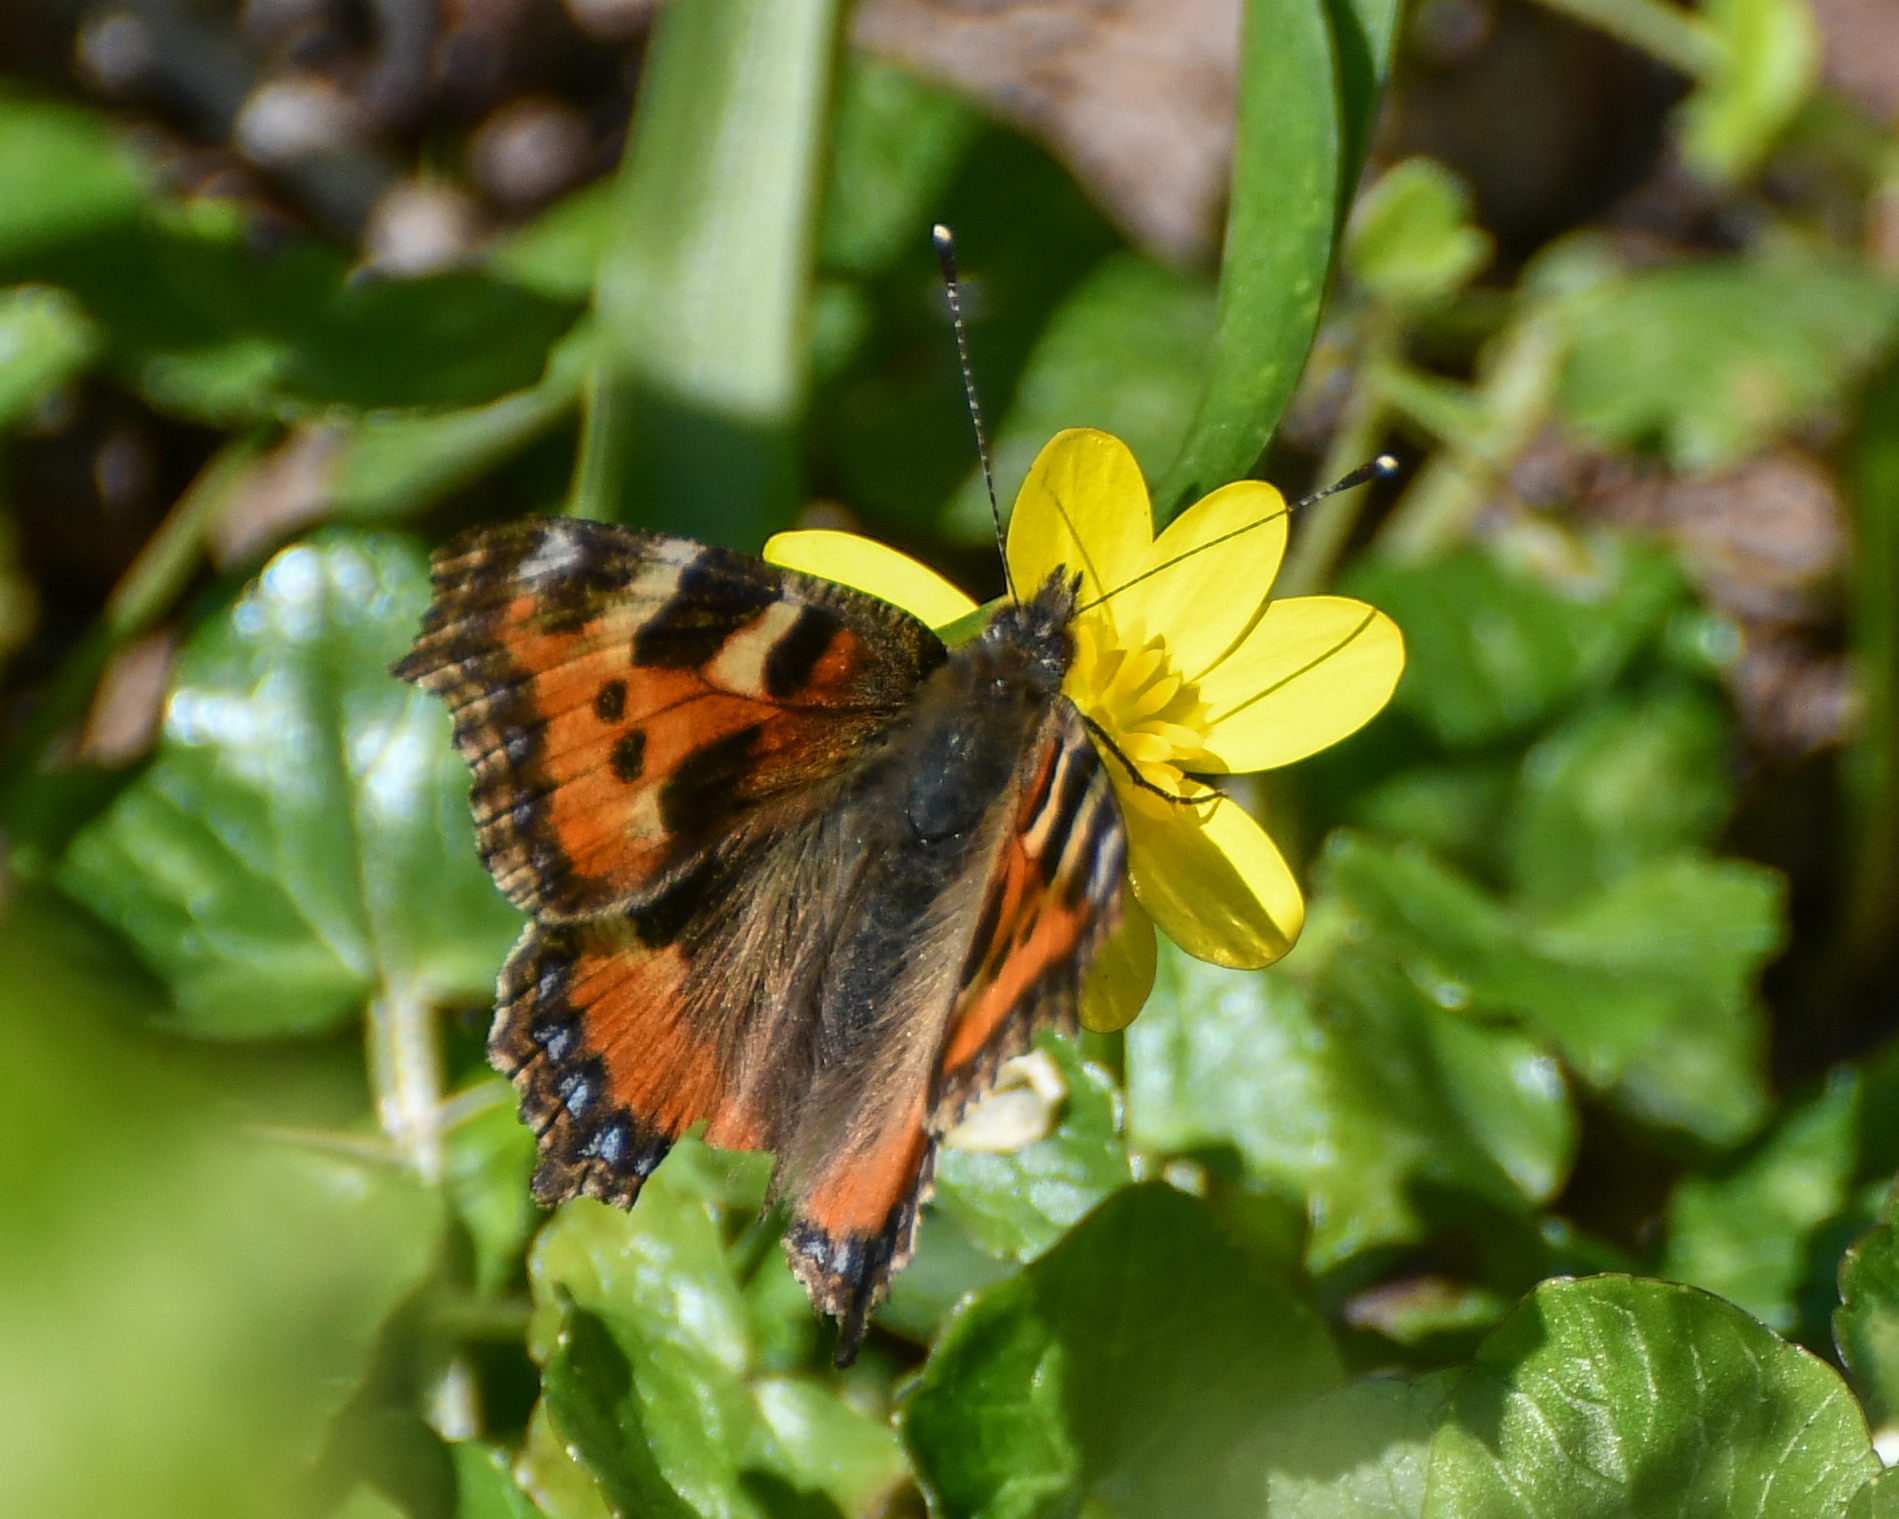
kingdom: Animalia
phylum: Arthropoda
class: Insecta
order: Lepidoptera
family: Nymphalidae
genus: Aglais
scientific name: Aglais urticae
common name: Small tortoiseshell
